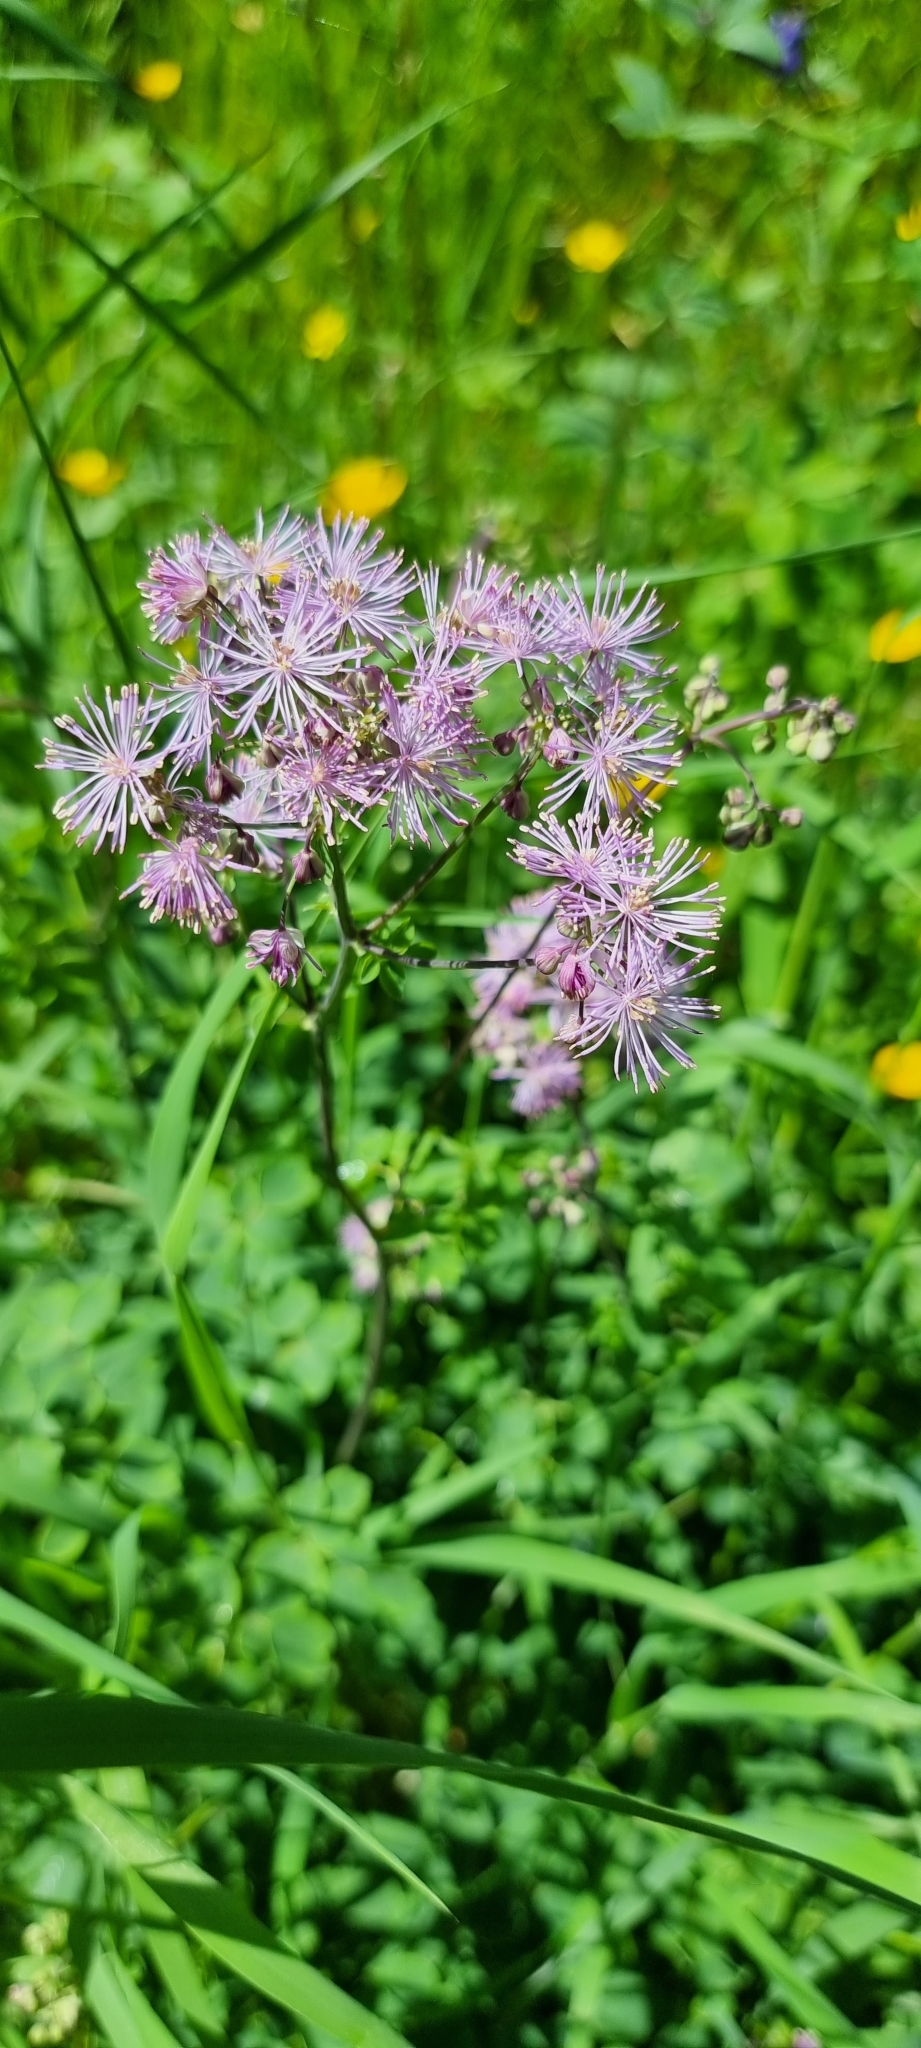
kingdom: Plantae
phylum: Tracheophyta
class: Magnoliopsida
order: Ranunculales
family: Ranunculaceae
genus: Thalictrum
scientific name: Thalictrum aquilegiifolium
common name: French meadow-rue
